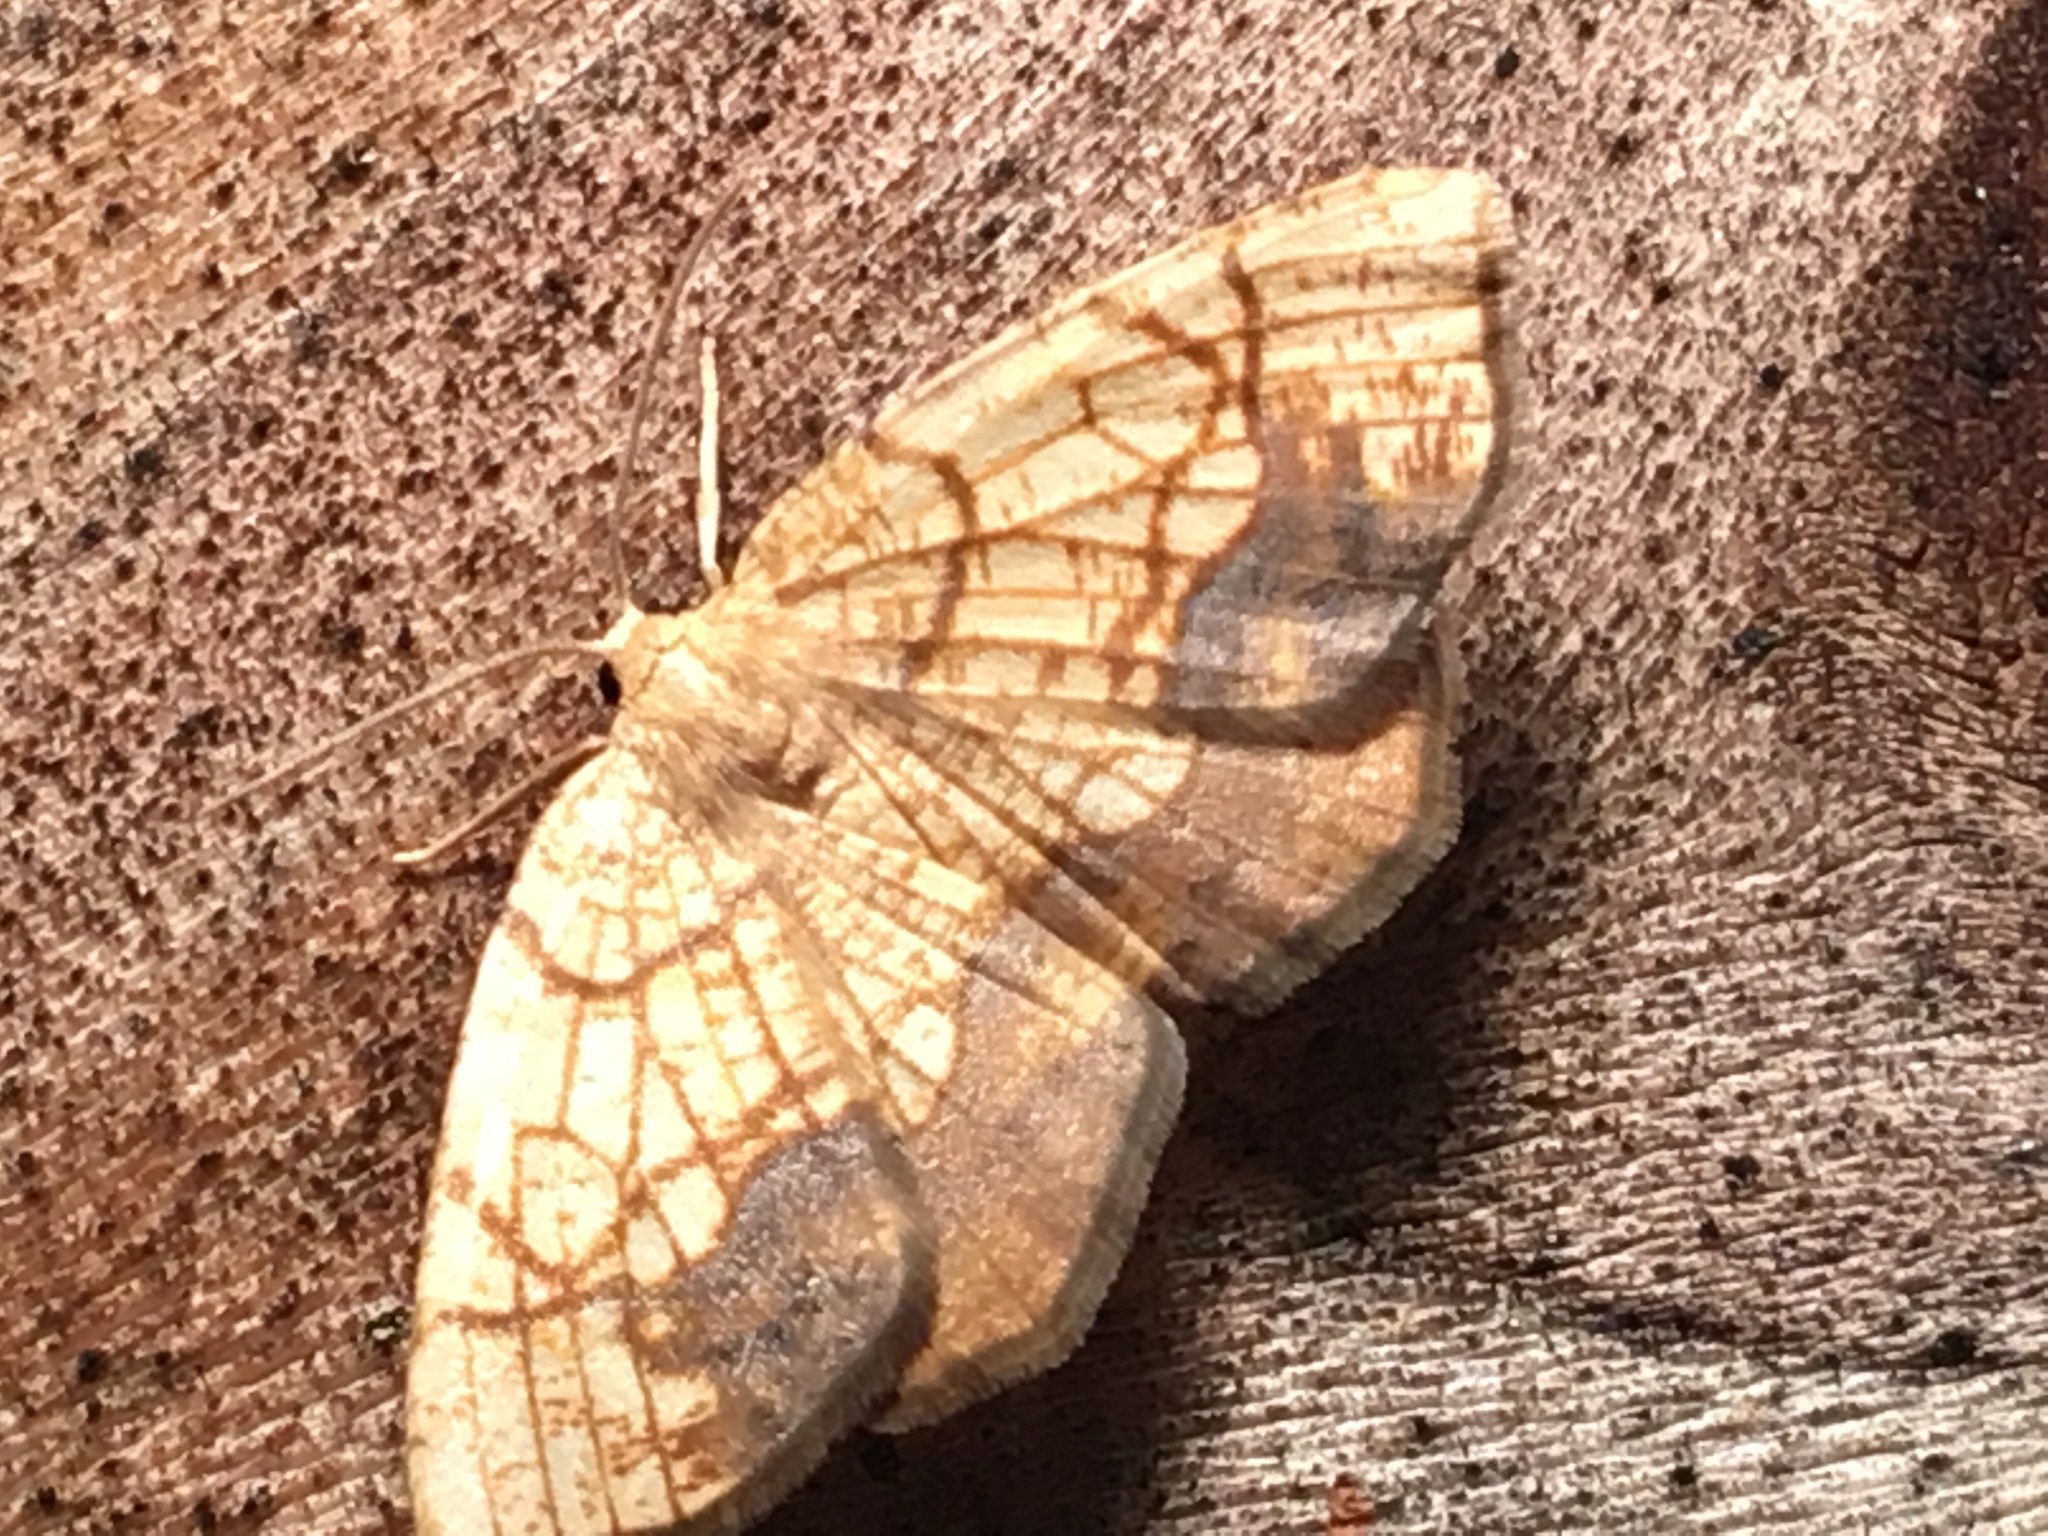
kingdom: Animalia
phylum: Arthropoda
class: Insecta
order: Lepidoptera
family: Geometridae
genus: Nematocampa
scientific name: Nematocampa resistaria
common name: Horned spanworm moth
